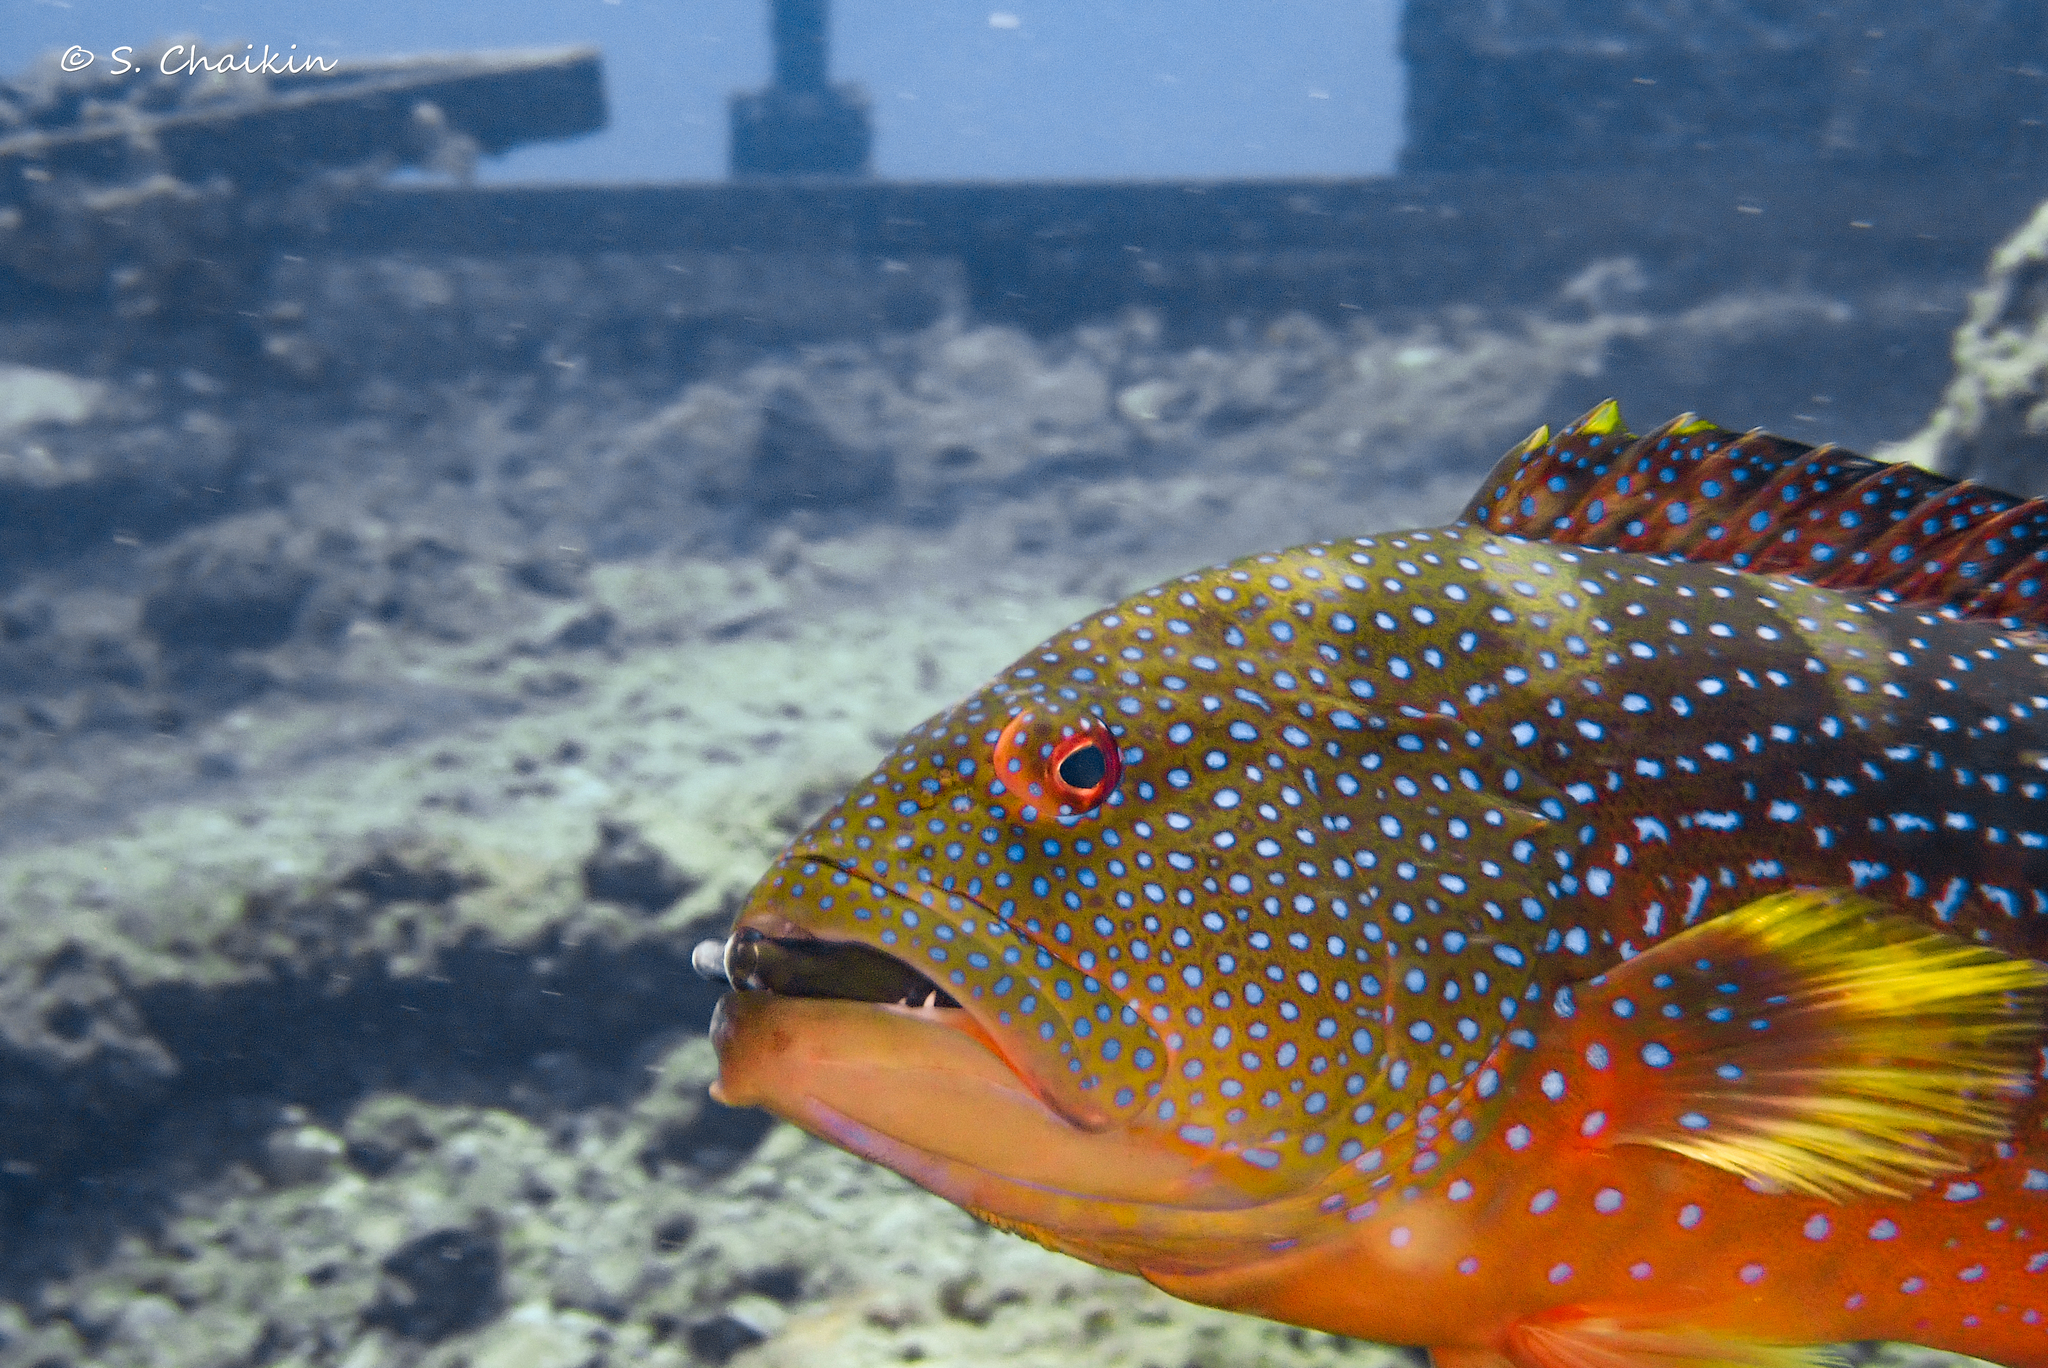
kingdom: Animalia
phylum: Chordata
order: Perciformes
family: Serranidae
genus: Variola
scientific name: Variola louti
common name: Yellow-edged lyretail
